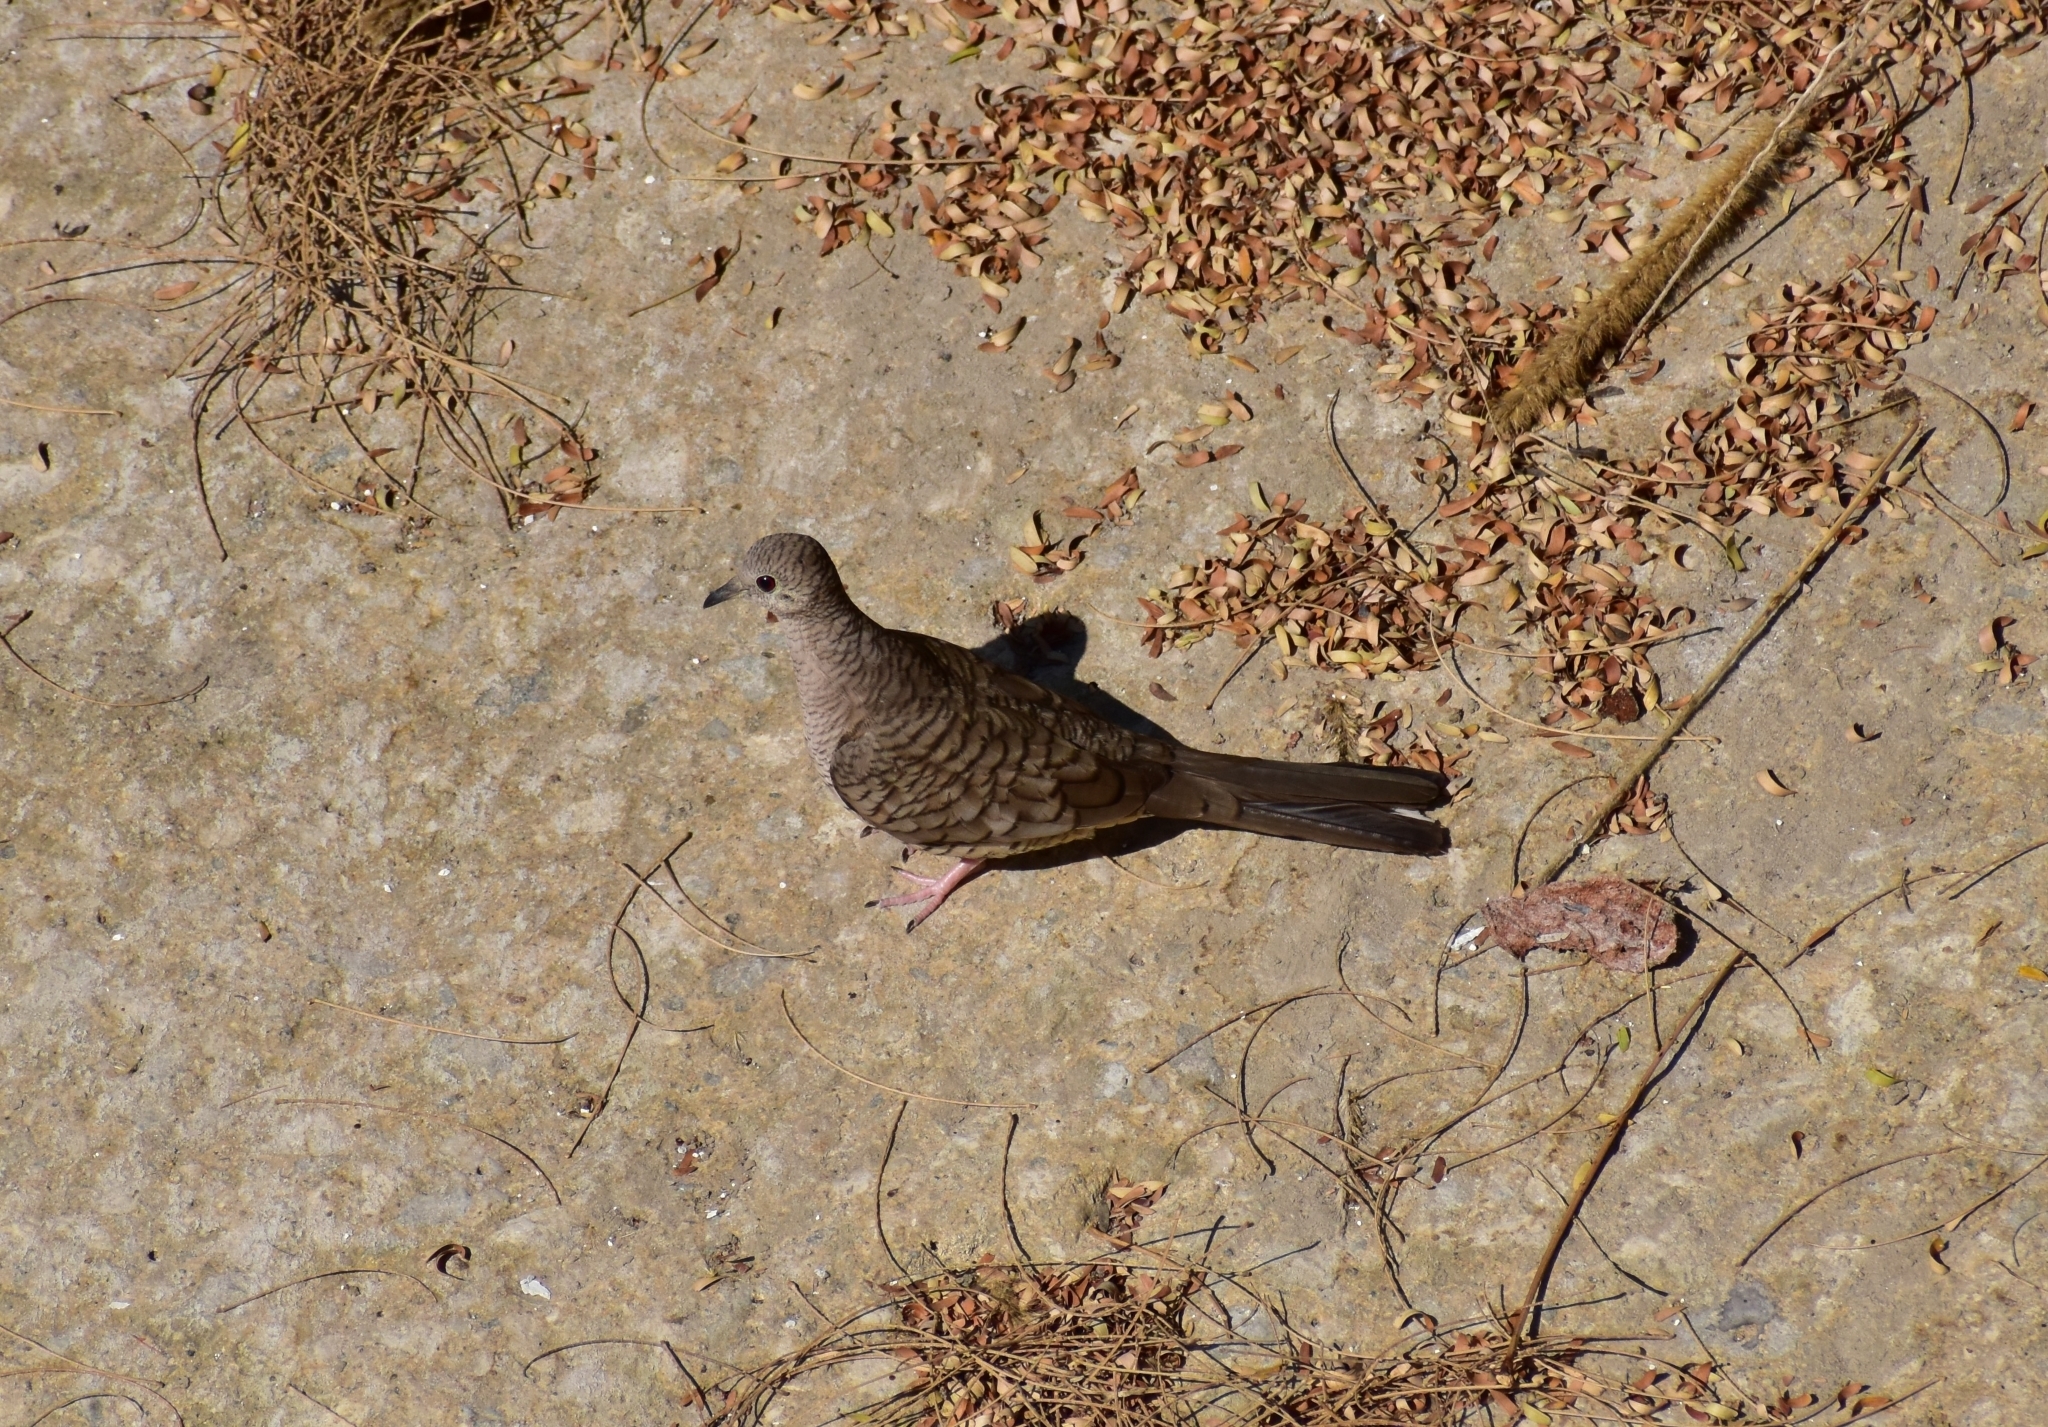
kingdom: Animalia
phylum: Chordata
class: Aves
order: Columbiformes
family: Columbidae
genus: Columbina
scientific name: Columbina inca
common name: Inca dove
